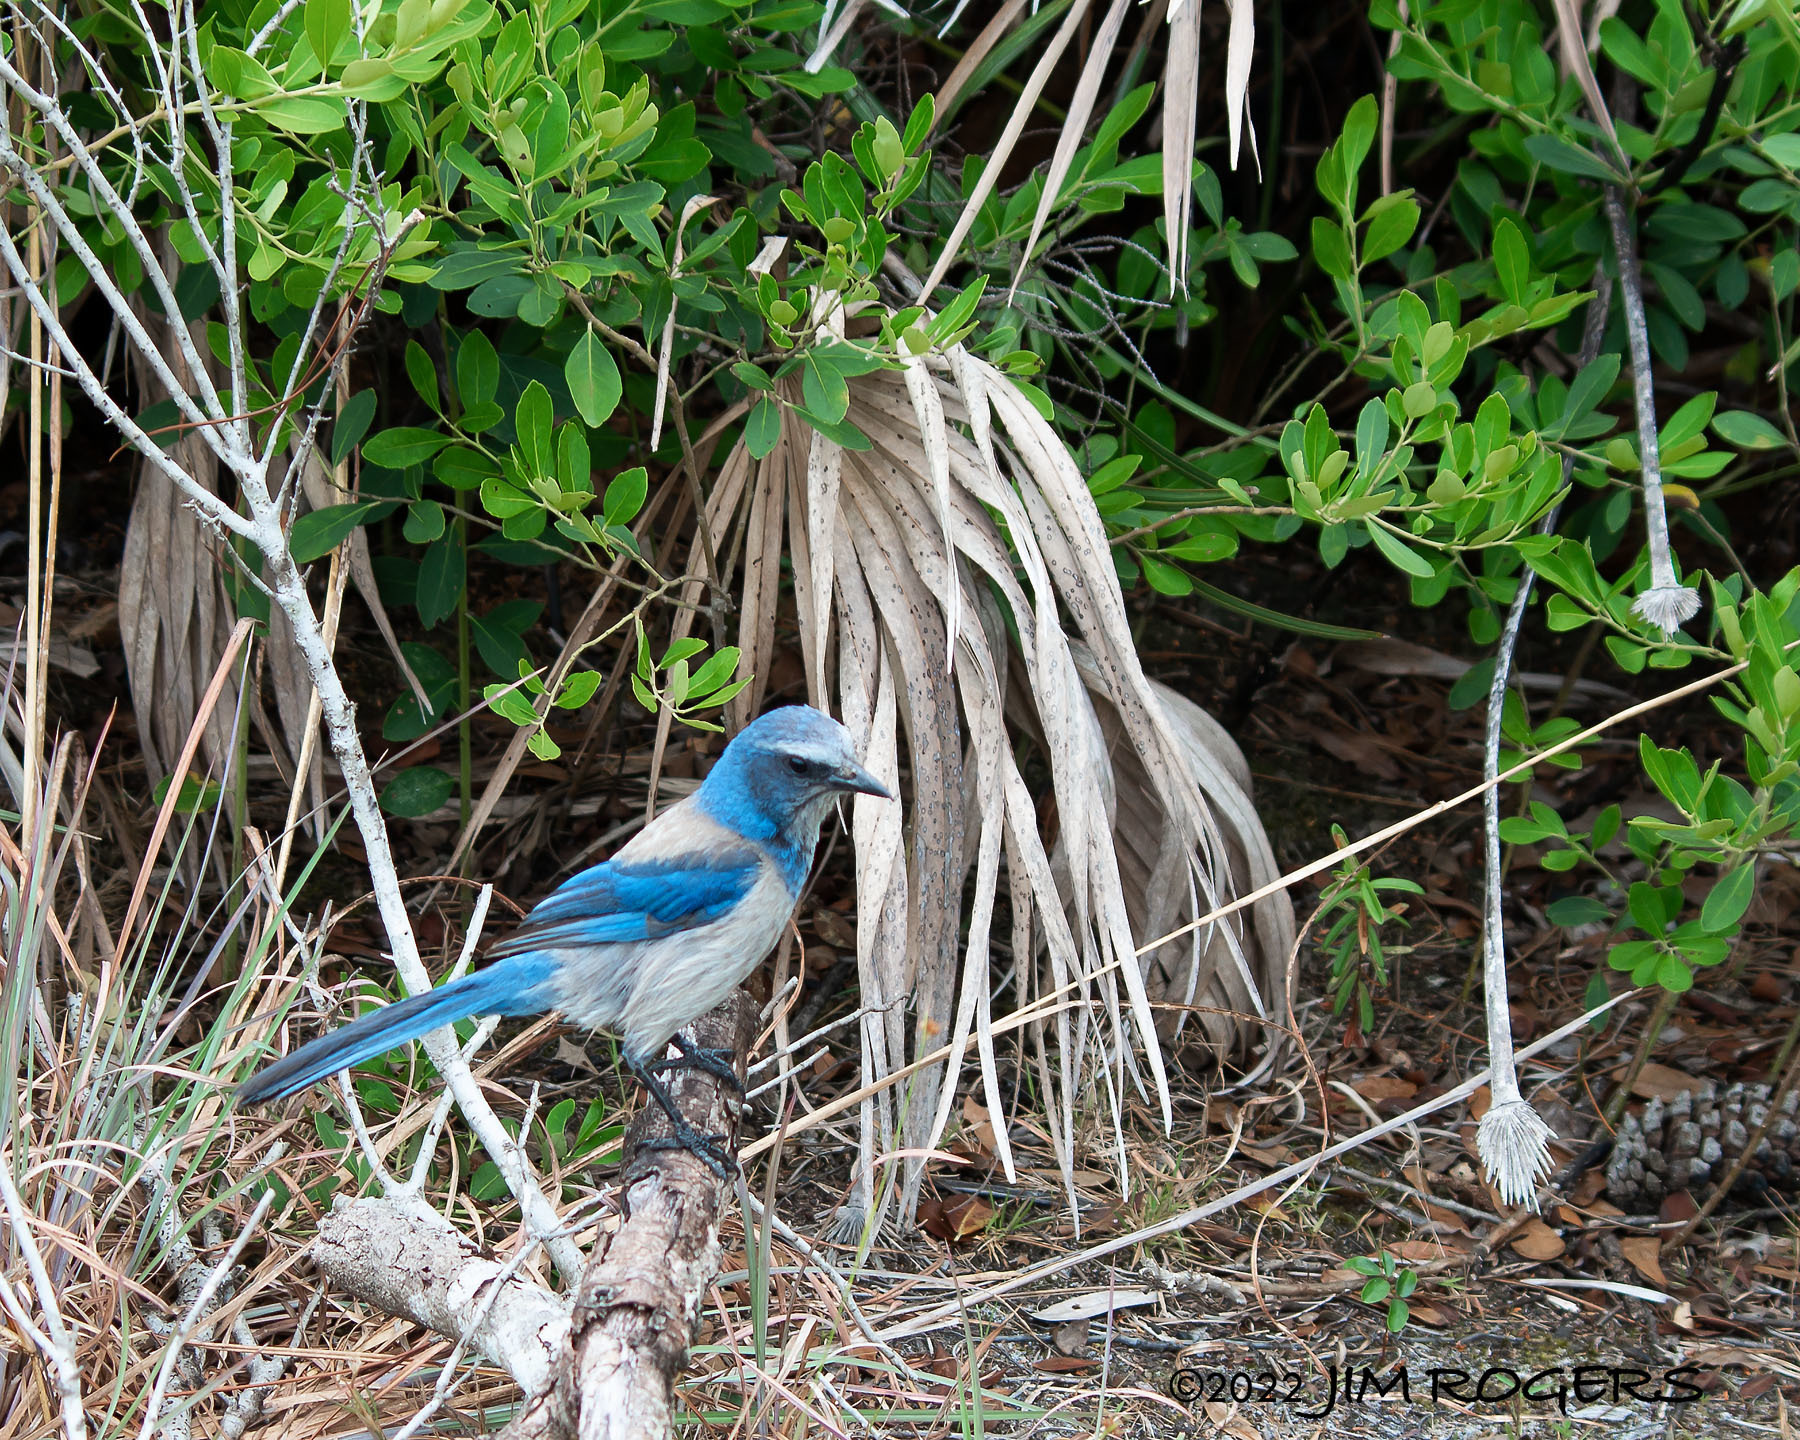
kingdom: Animalia
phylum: Chordata
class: Aves
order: Passeriformes
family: Corvidae
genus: Aphelocoma
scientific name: Aphelocoma coerulescens
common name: Florida scrub jay
